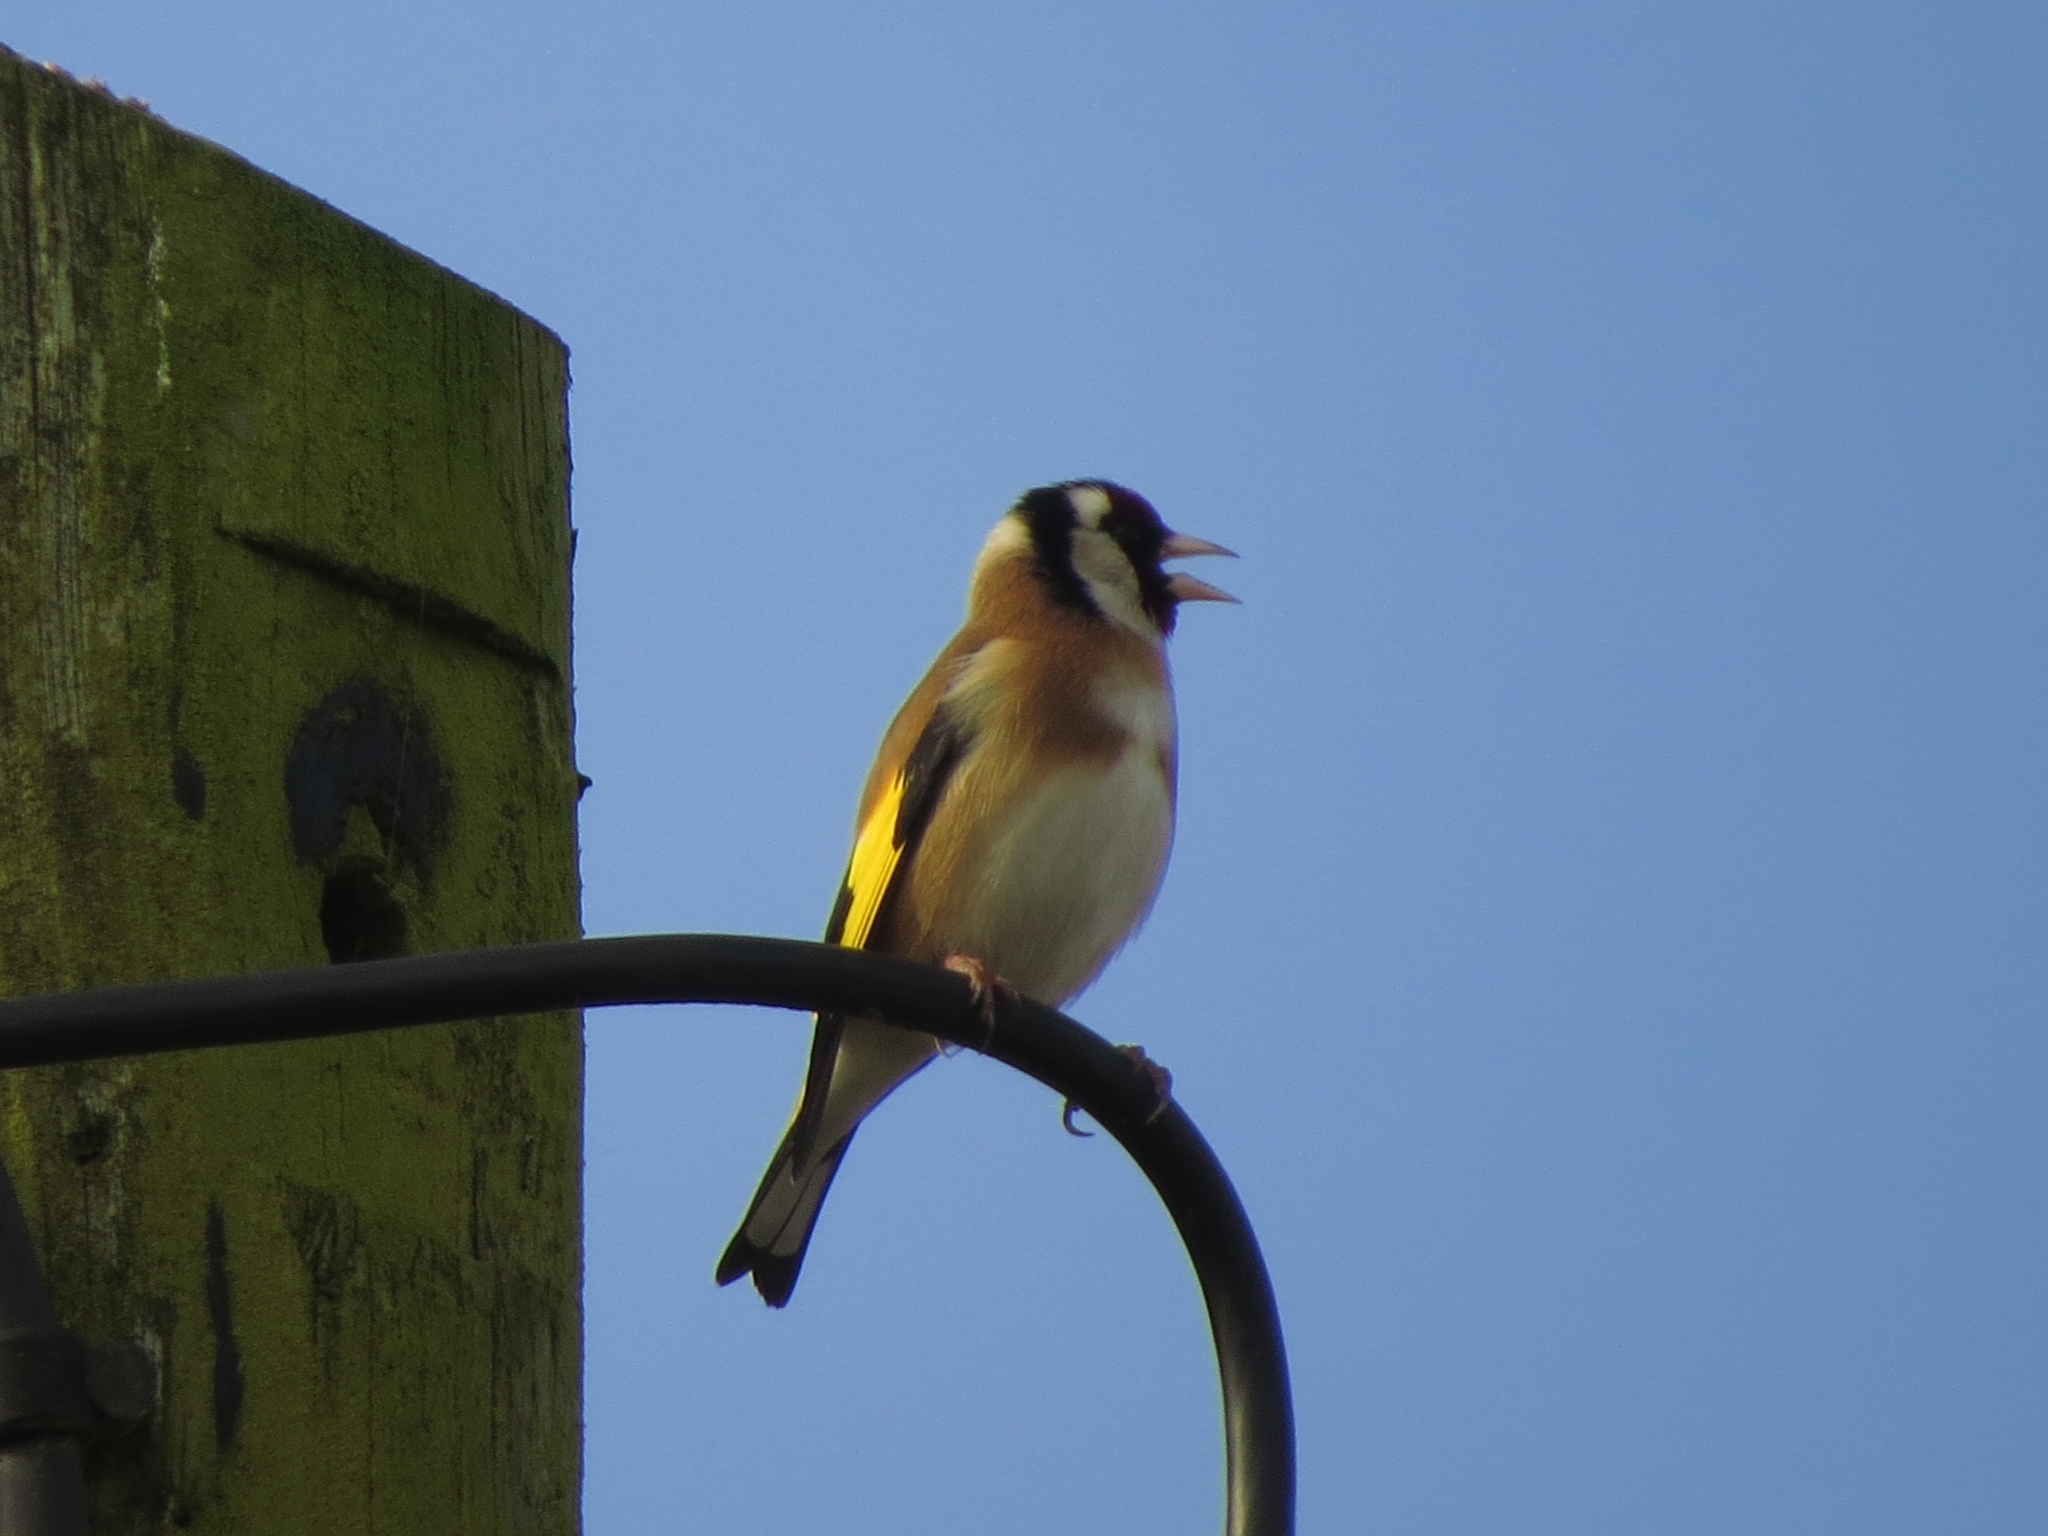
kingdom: Animalia
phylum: Chordata
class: Aves
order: Passeriformes
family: Fringillidae
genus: Carduelis
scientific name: Carduelis carduelis
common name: European goldfinch
